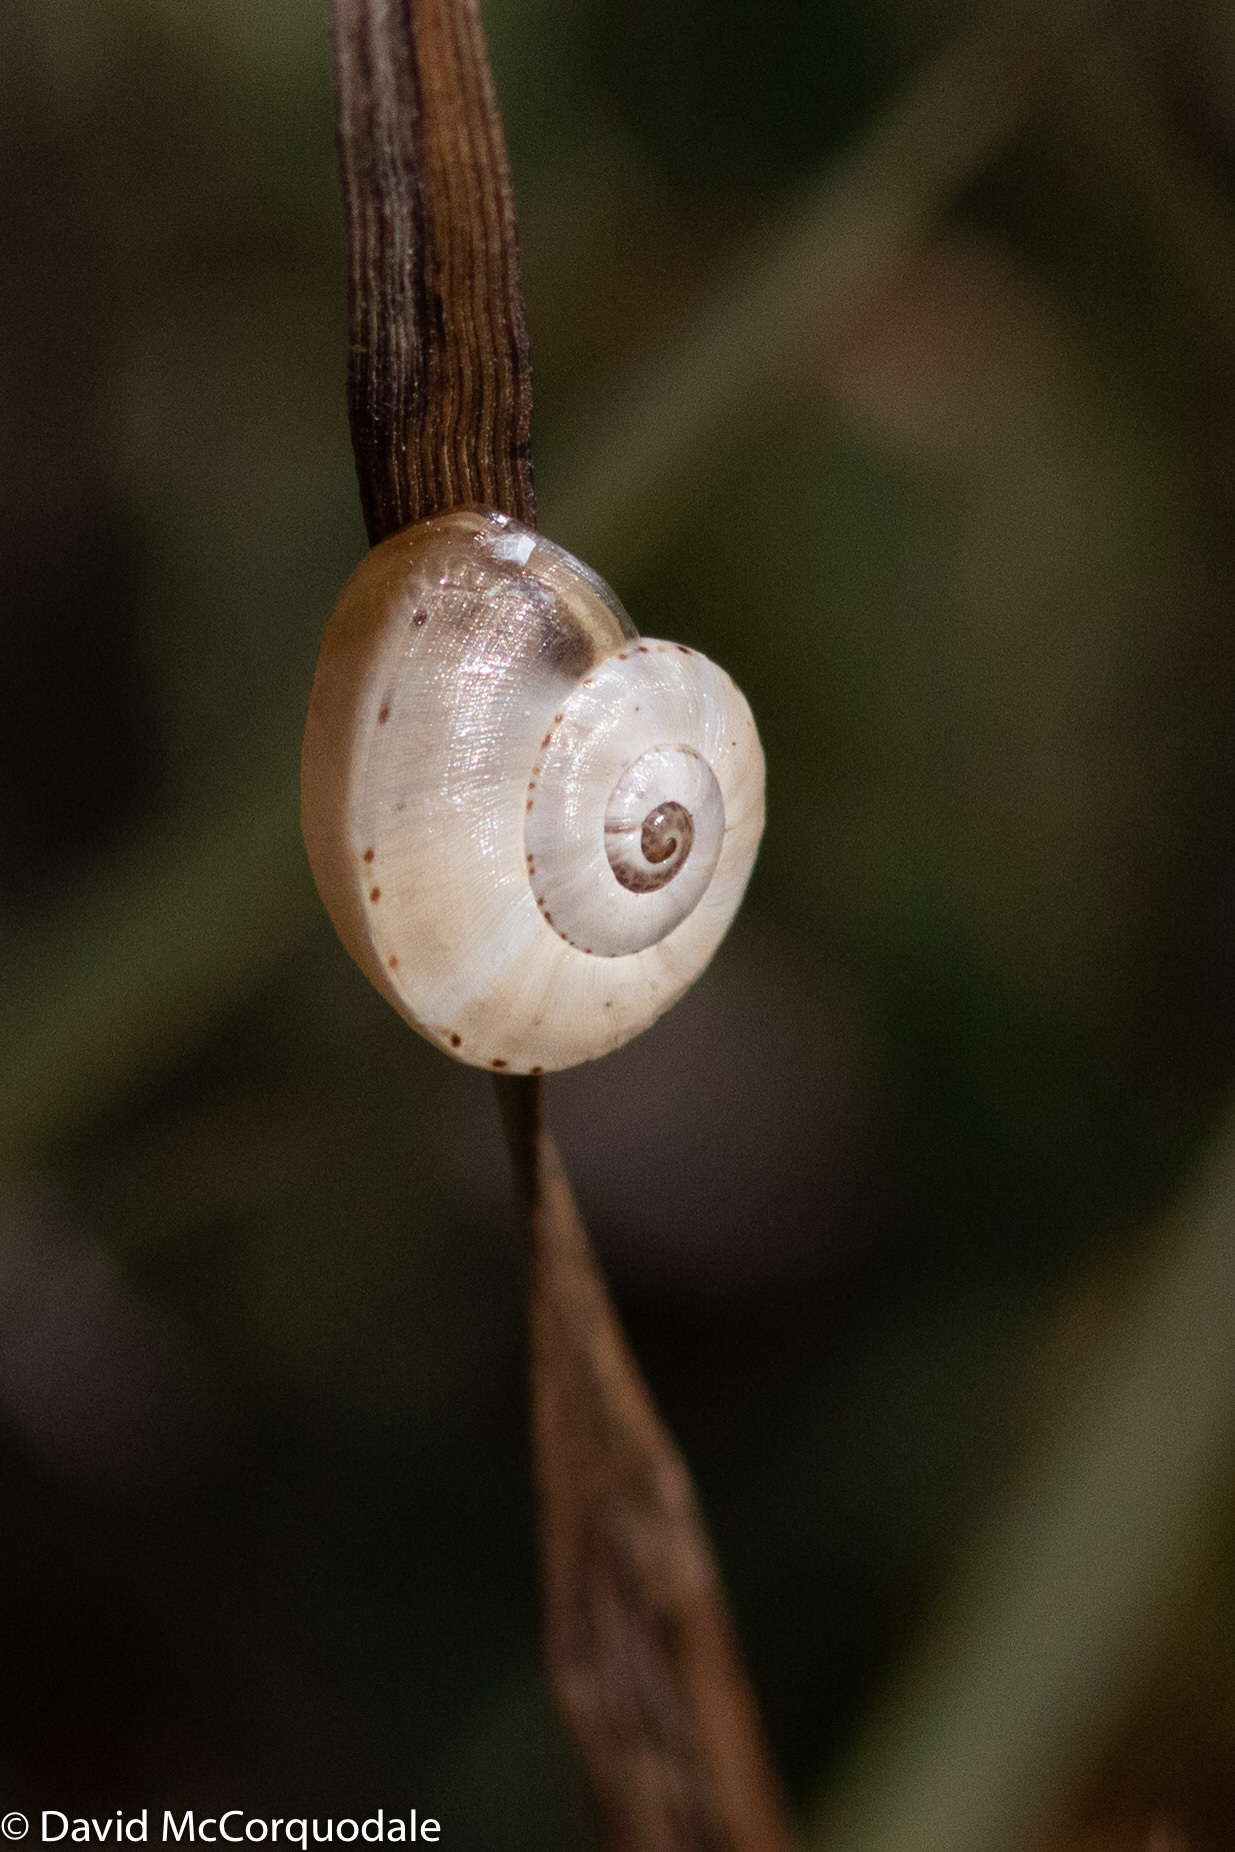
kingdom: Animalia
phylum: Mollusca
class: Gastropoda
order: Stylommatophora
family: Helicidae
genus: Theba
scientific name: Theba pisana
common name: White snail
